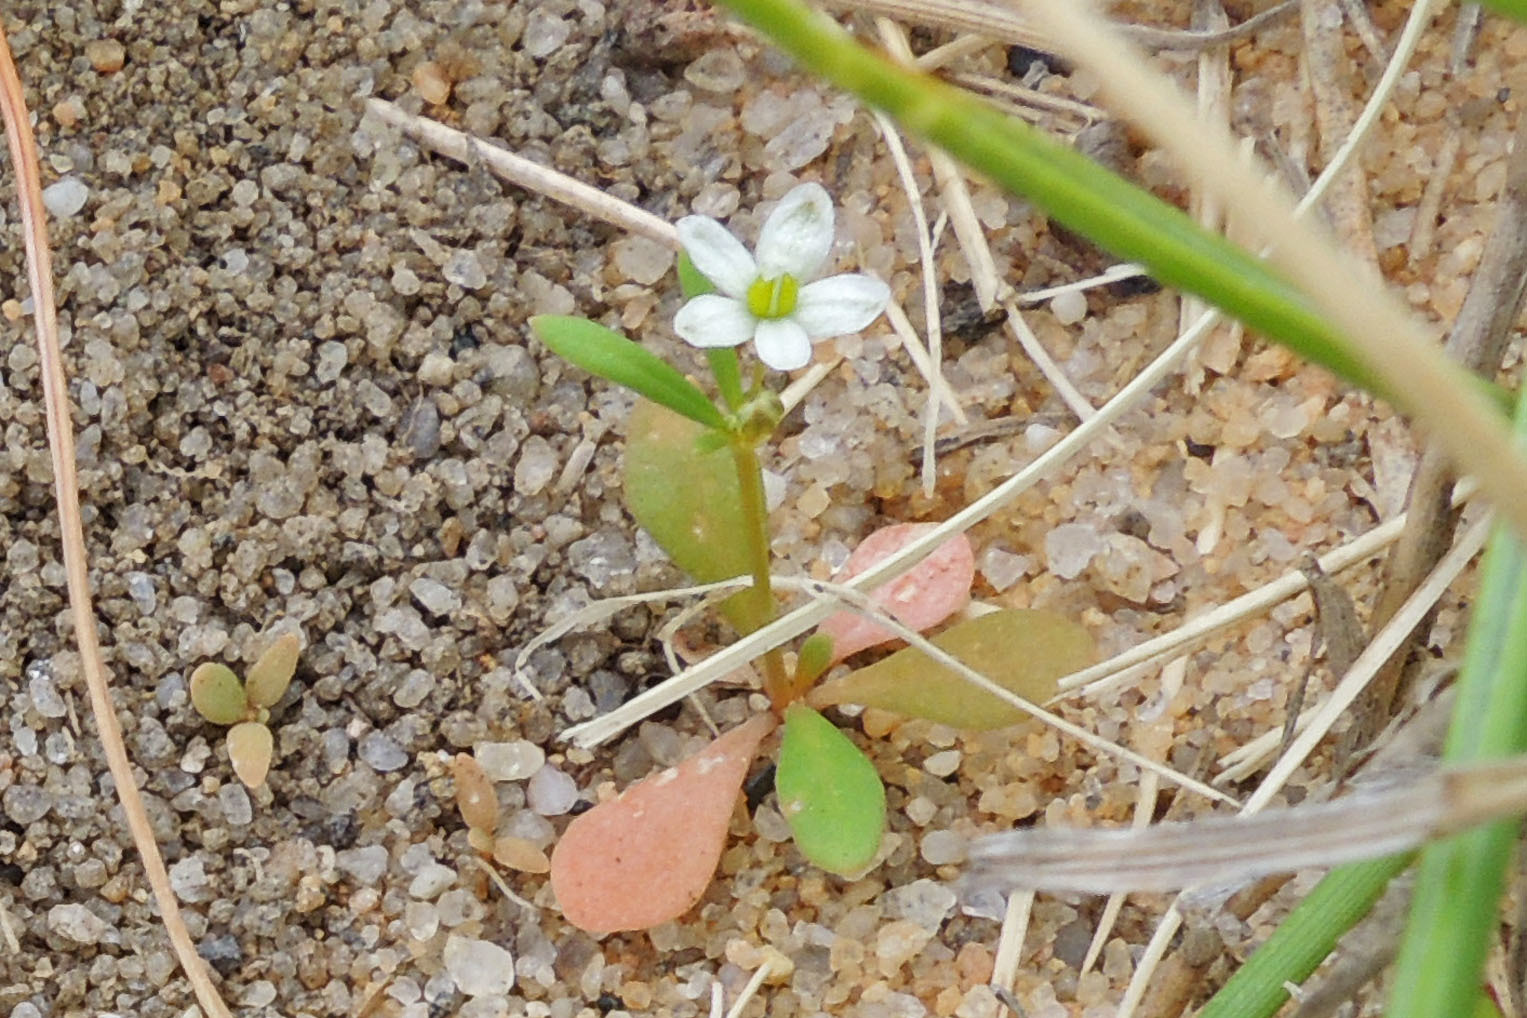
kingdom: Plantae
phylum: Tracheophyta
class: Magnoliopsida
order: Caryophyllales
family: Molluginaceae
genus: Mollugo
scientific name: Mollugo verticillata
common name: Green carpetweed
